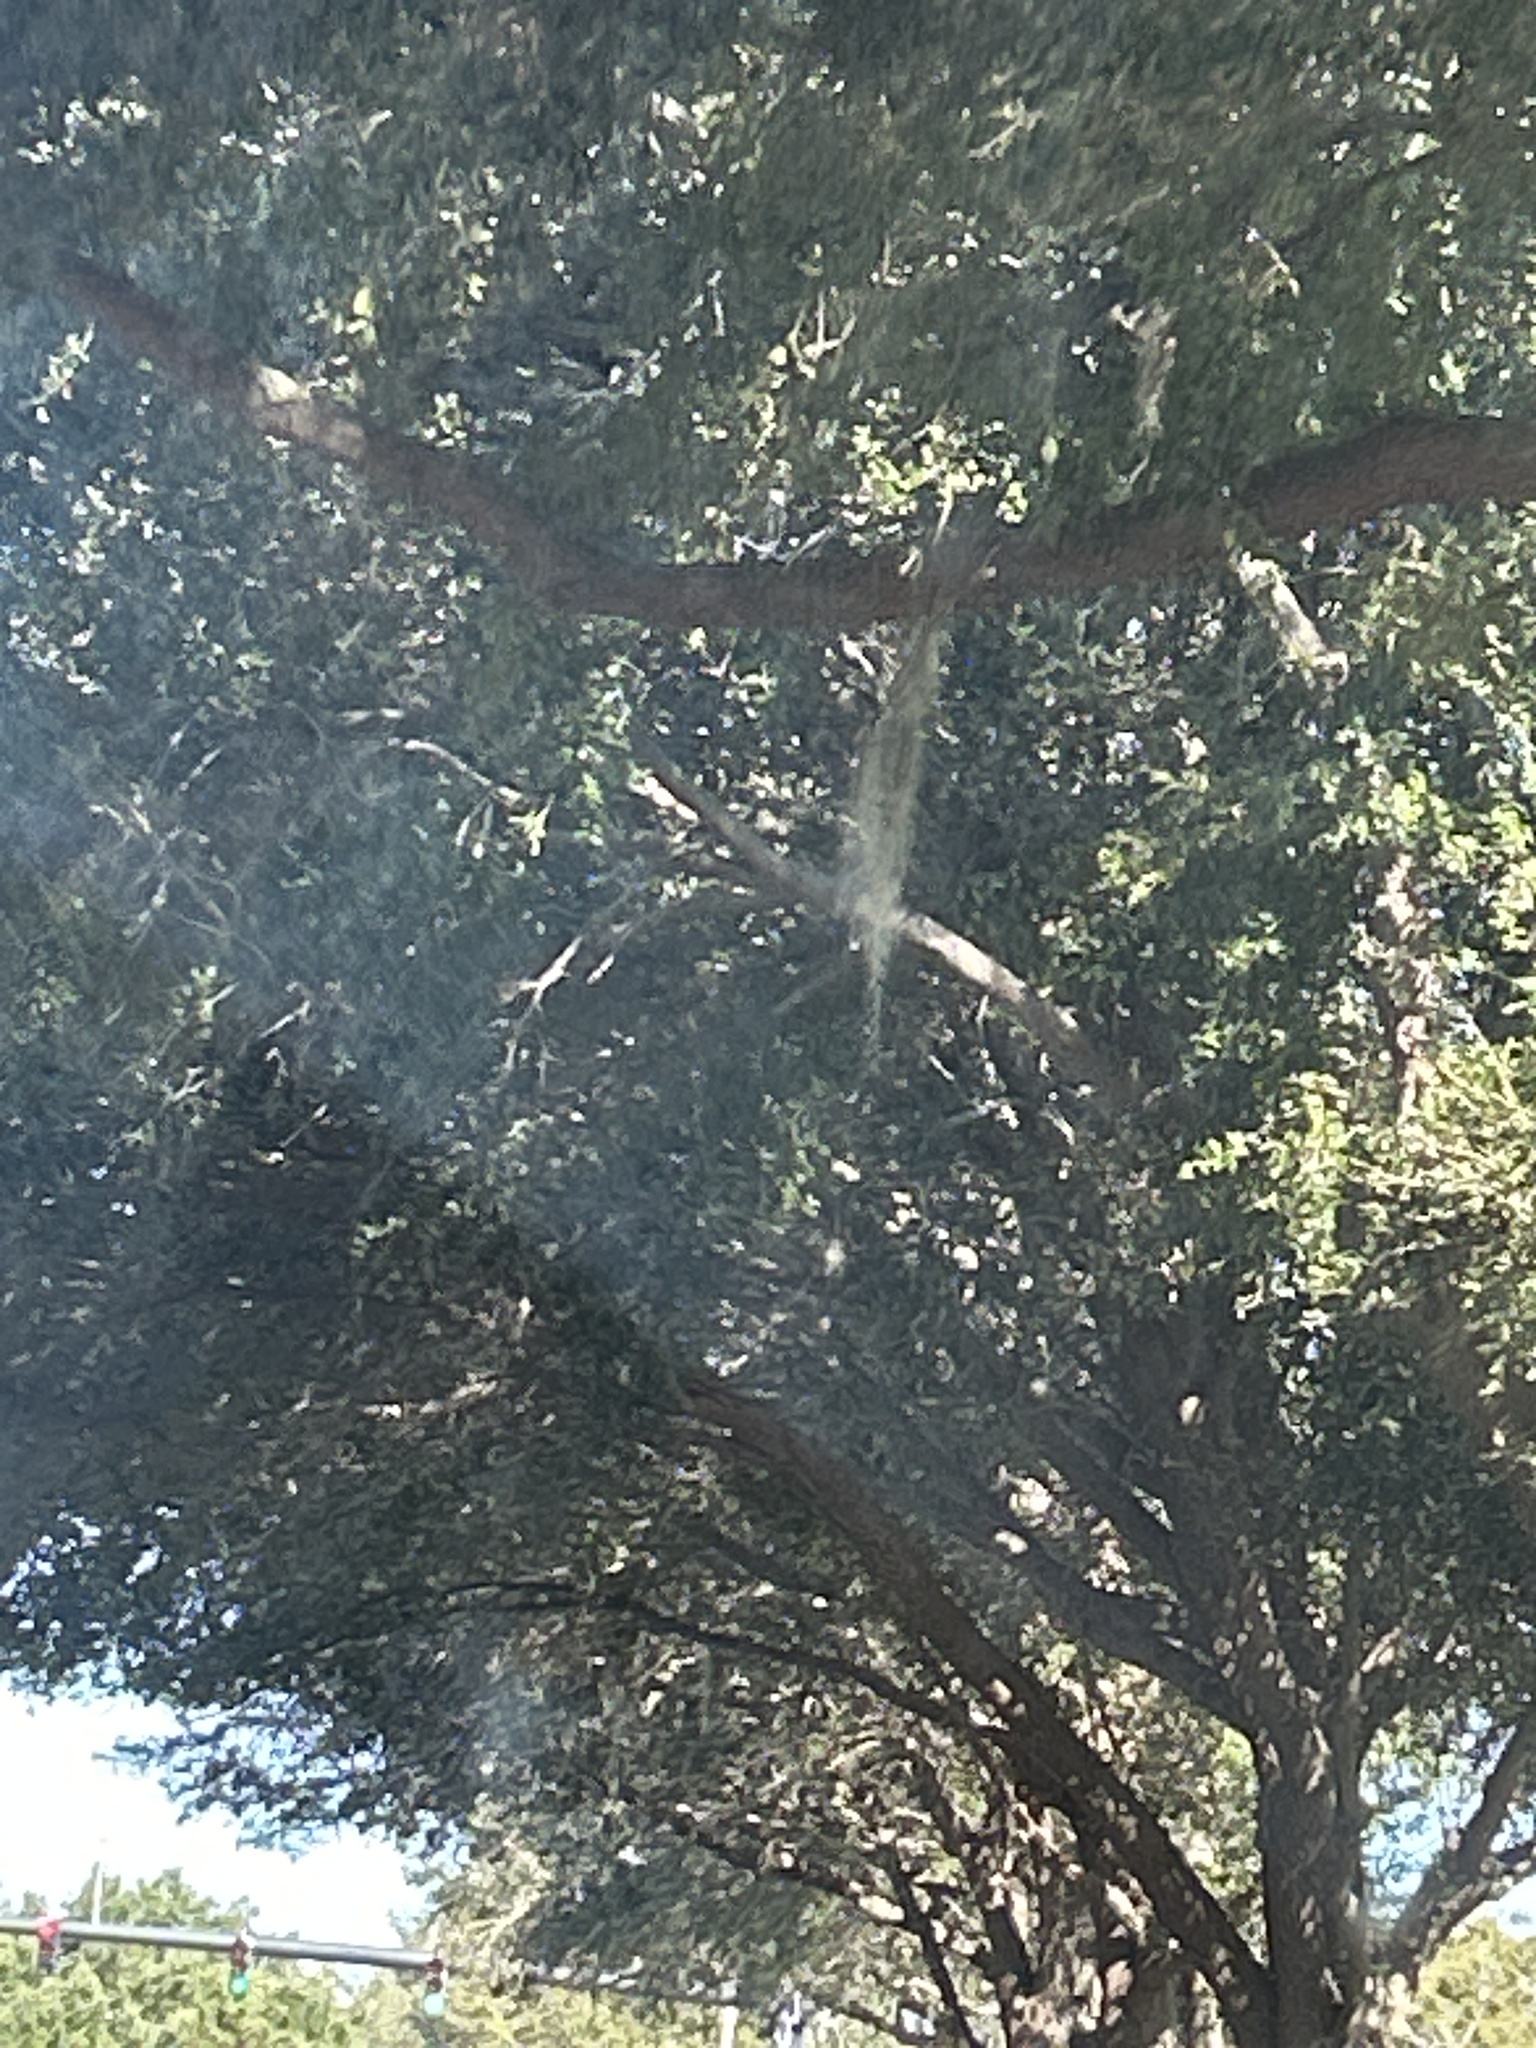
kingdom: Plantae
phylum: Tracheophyta
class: Liliopsida
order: Poales
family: Bromeliaceae
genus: Tillandsia
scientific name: Tillandsia usneoides
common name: Spanish moss
